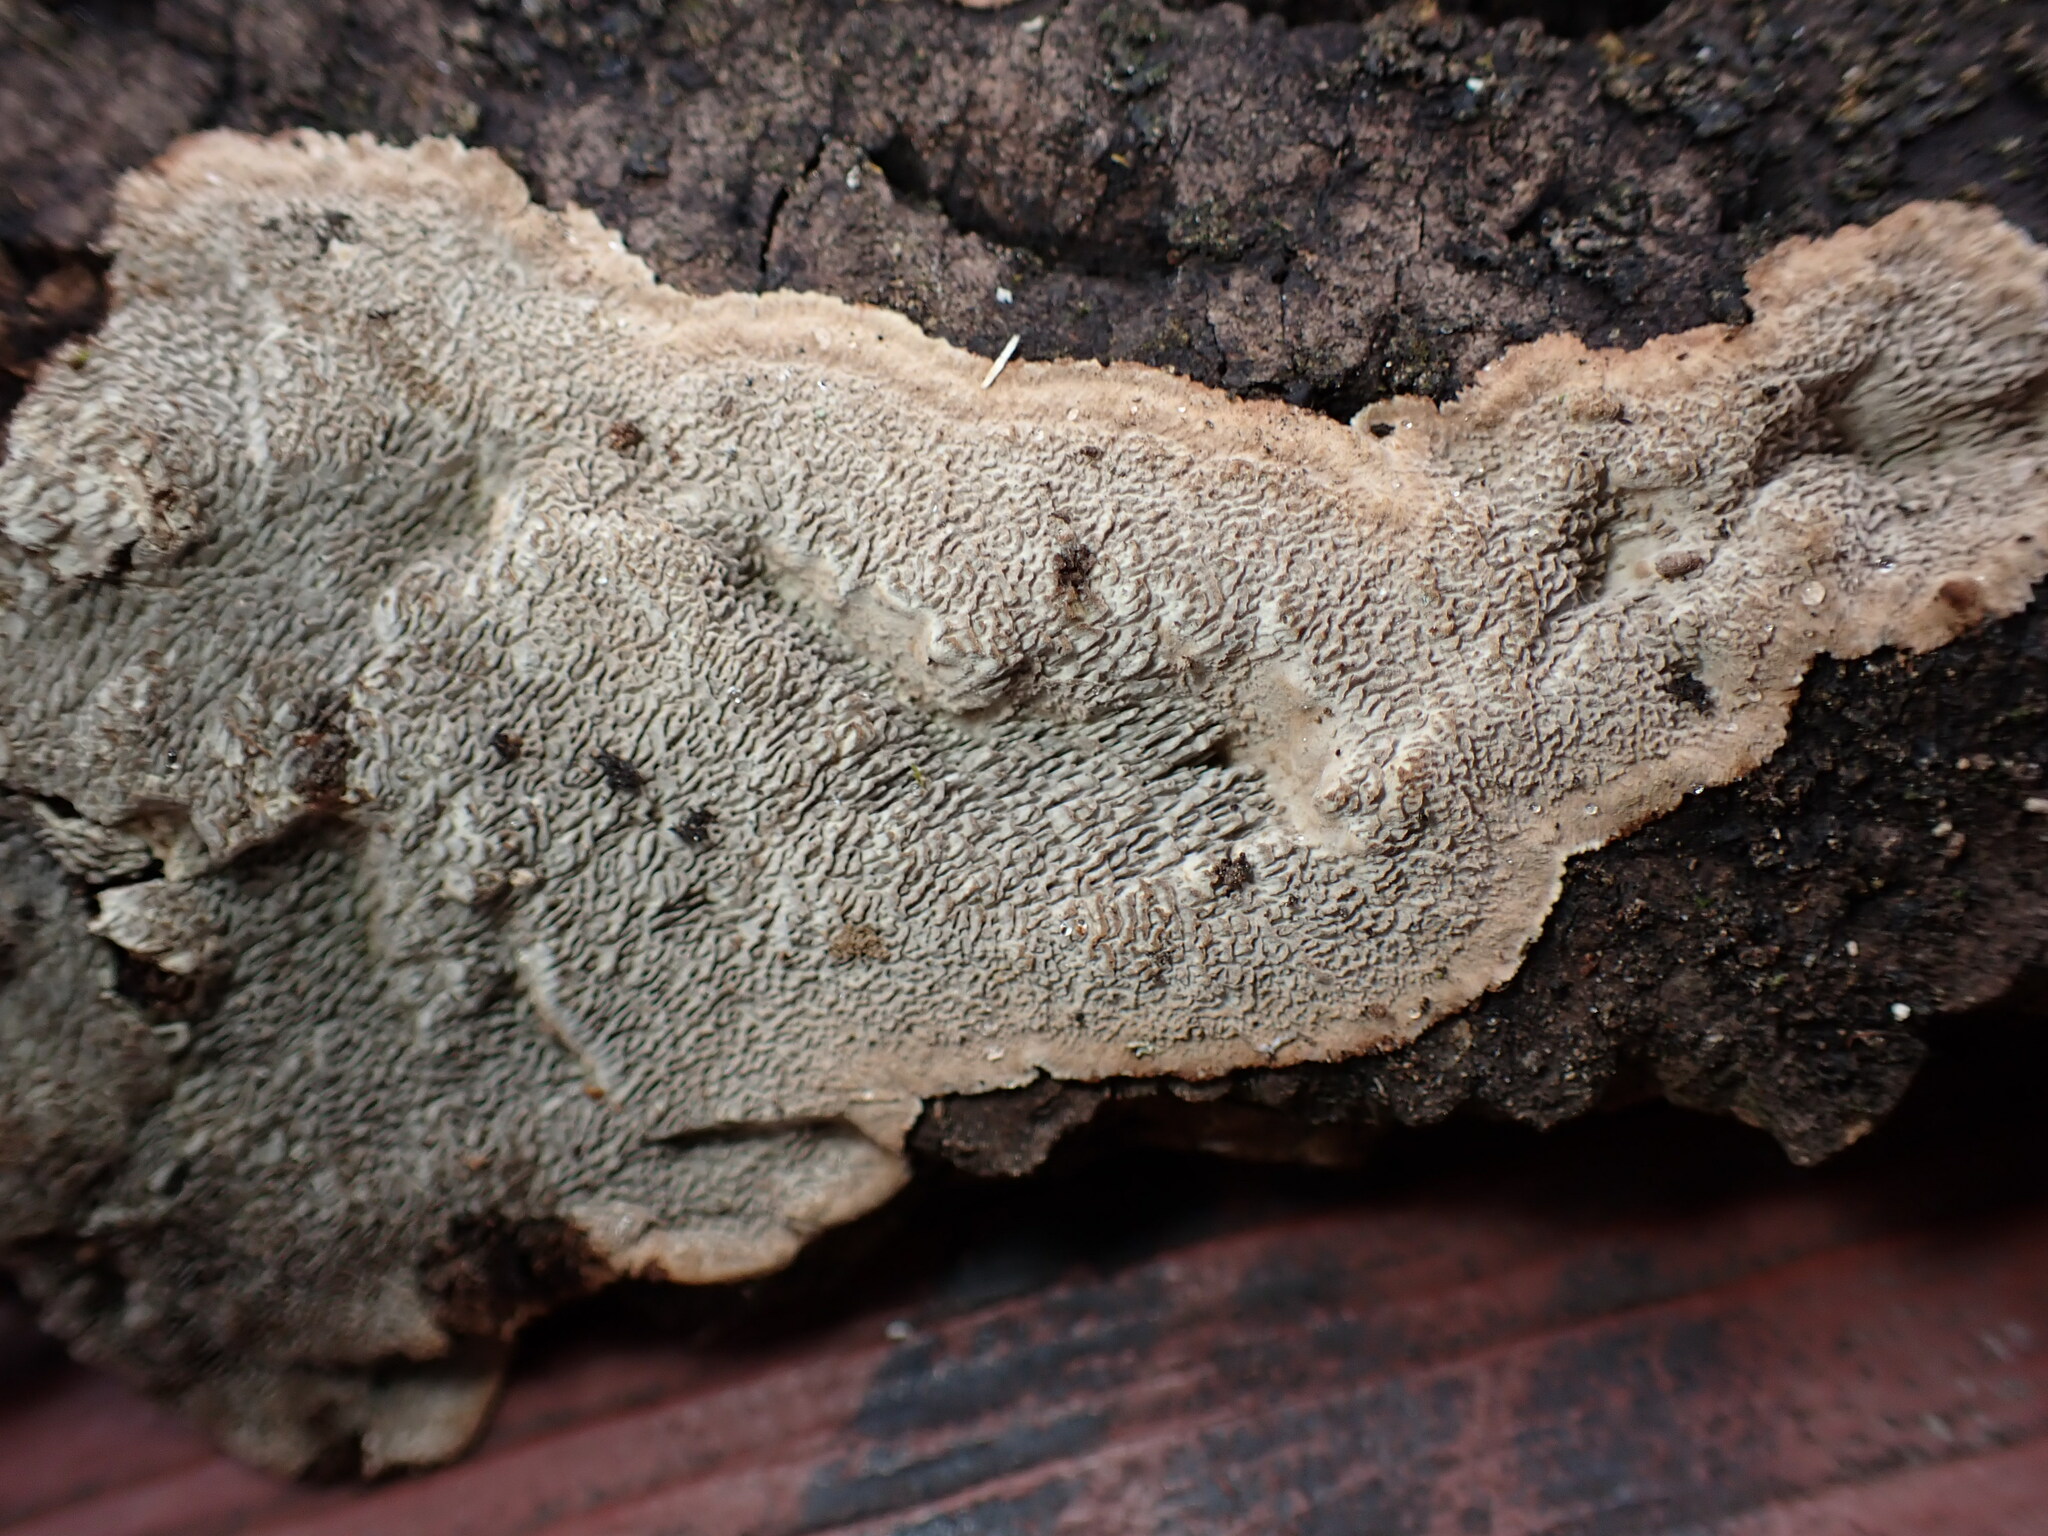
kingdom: Fungi
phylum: Basidiomycota
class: Agaricomycetes
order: Polyporales
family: Polyporaceae
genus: Dentocorticium
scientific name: Dentocorticium portoricense
